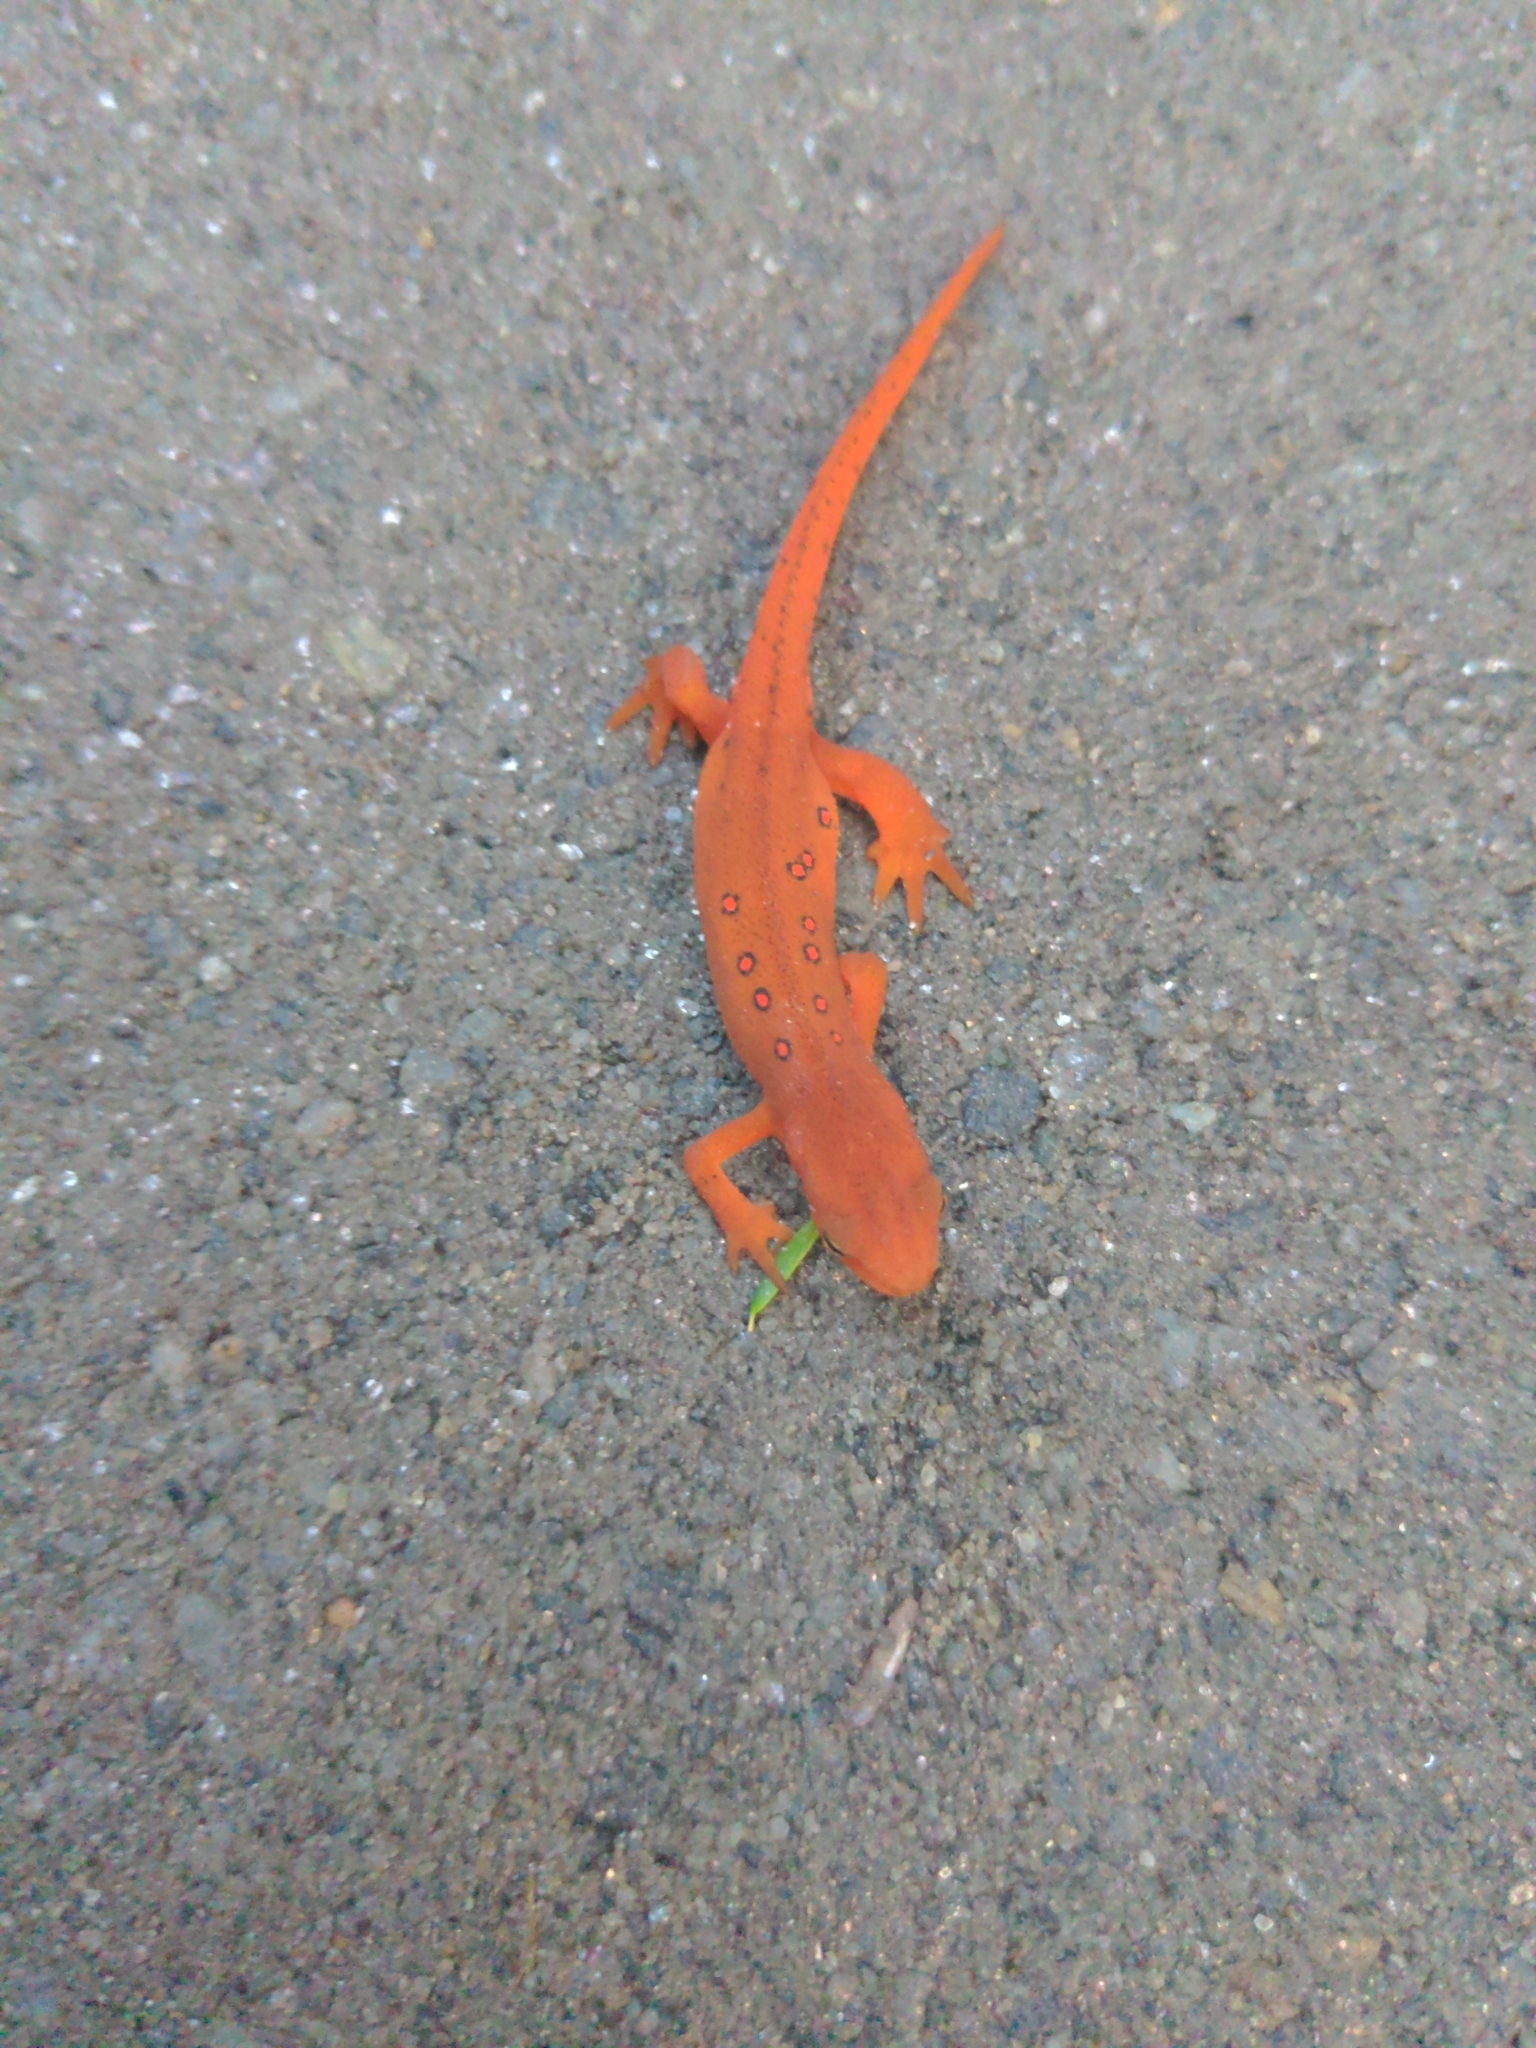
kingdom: Animalia
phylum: Chordata
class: Amphibia
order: Caudata
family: Salamandridae
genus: Notophthalmus
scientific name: Notophthalmus viridescens
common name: Eastern newt
